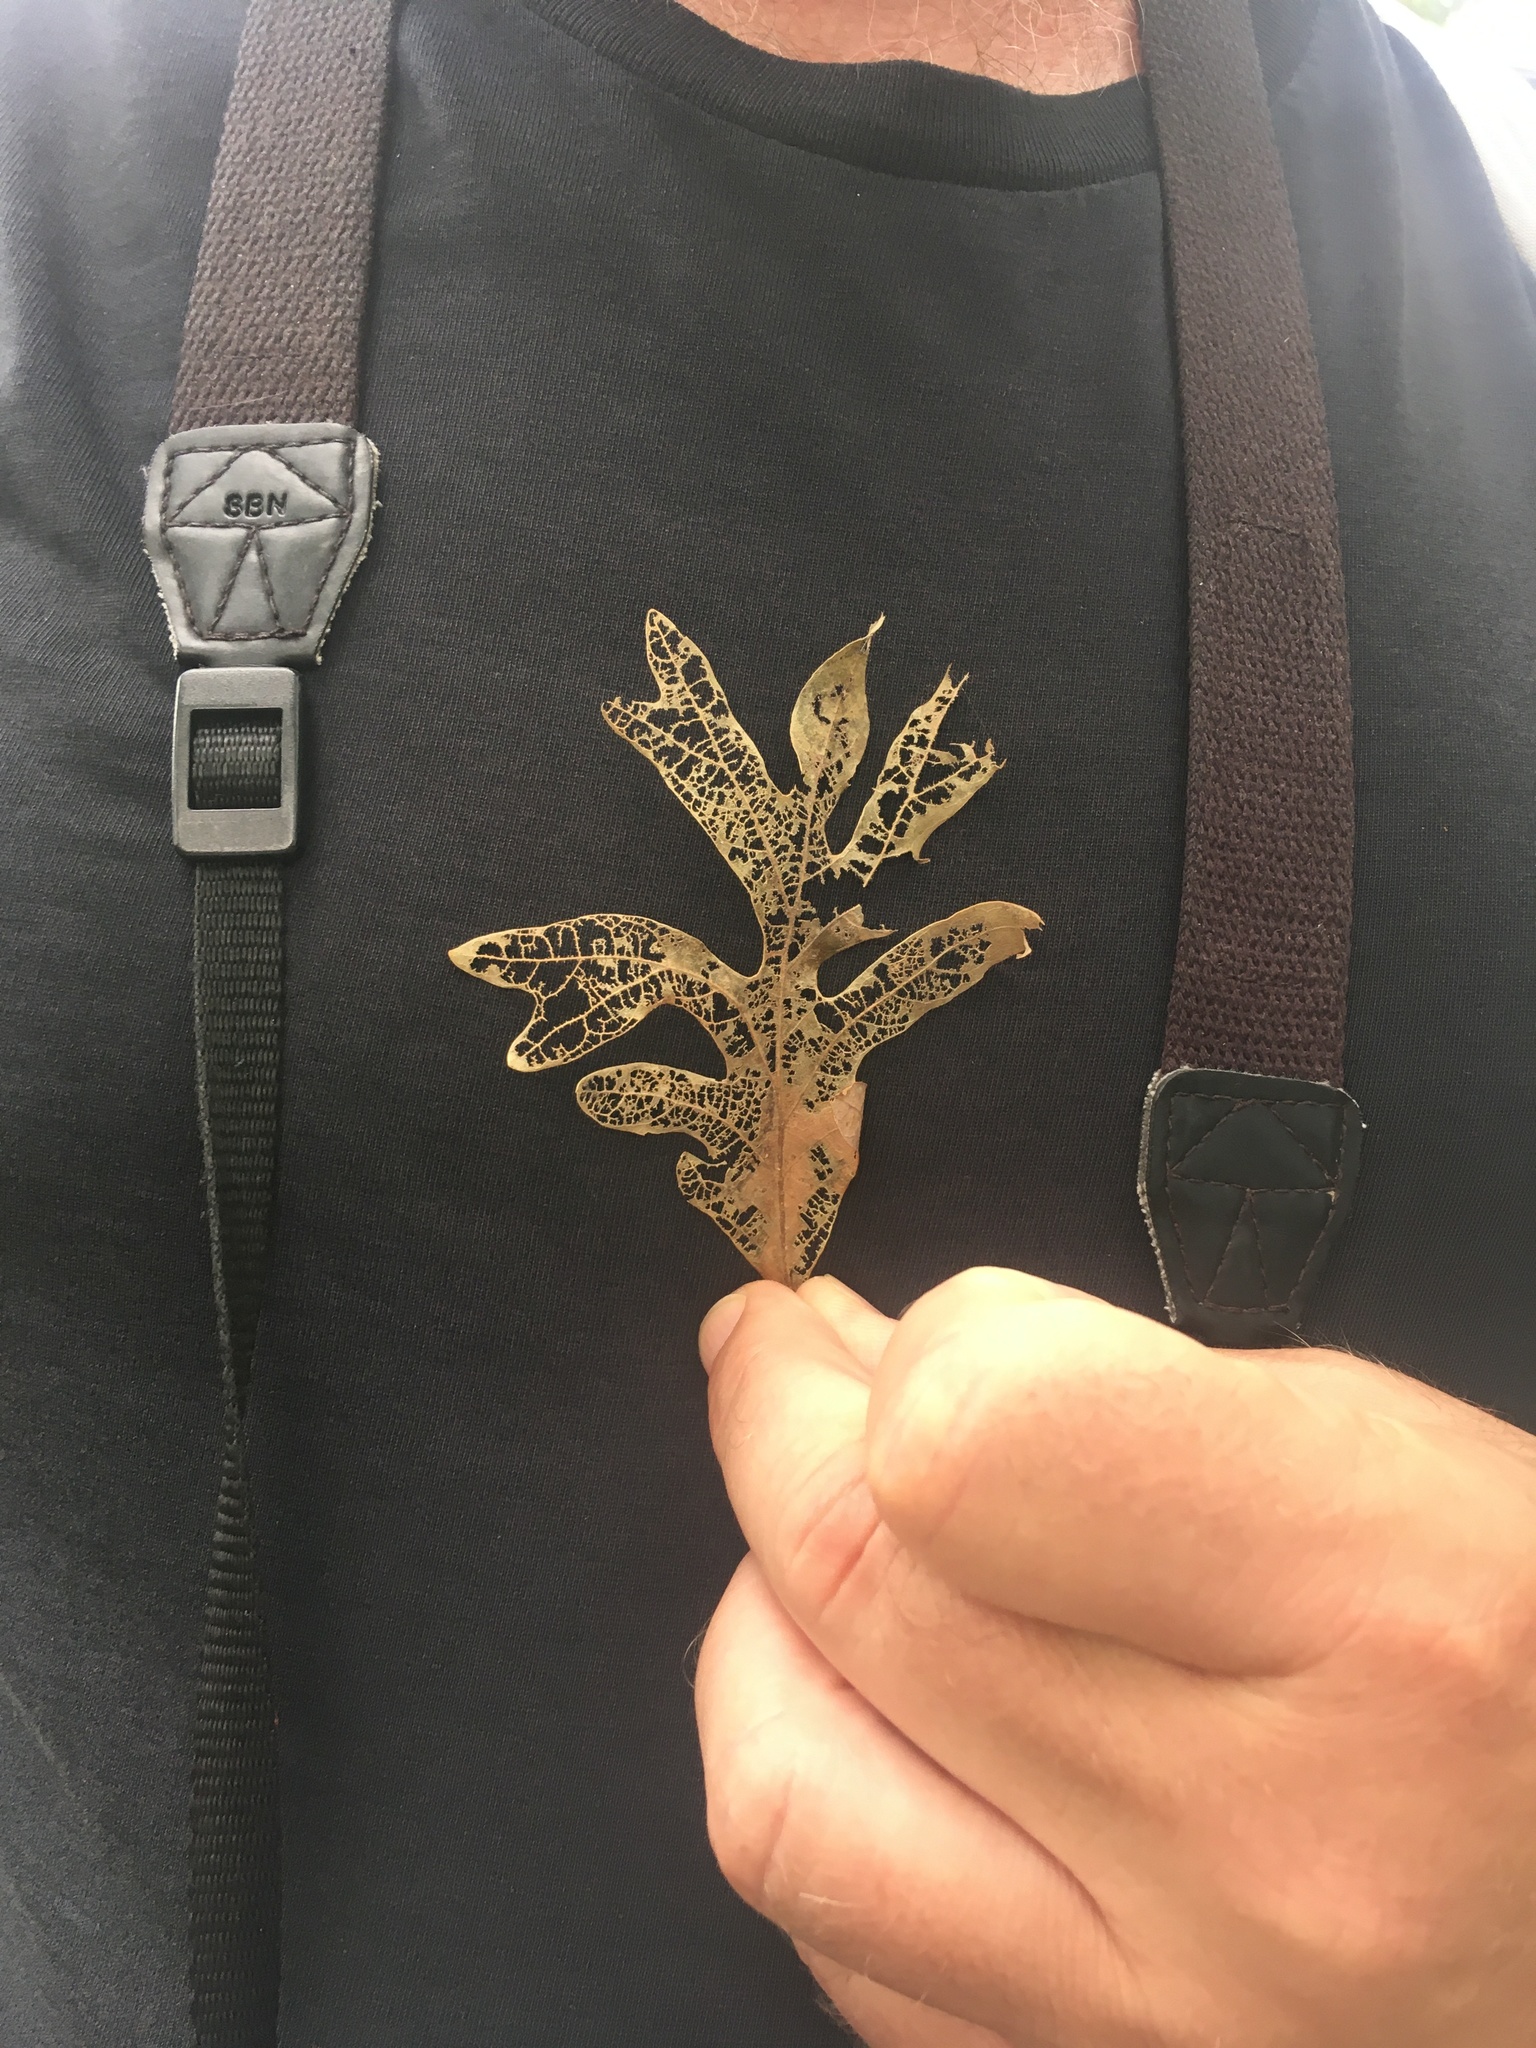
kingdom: Plantae
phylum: Tracheophyta
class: Magnoliopsida
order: Fagales
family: Fagaceae
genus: Quercus
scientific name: Quercus alba
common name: White oak
